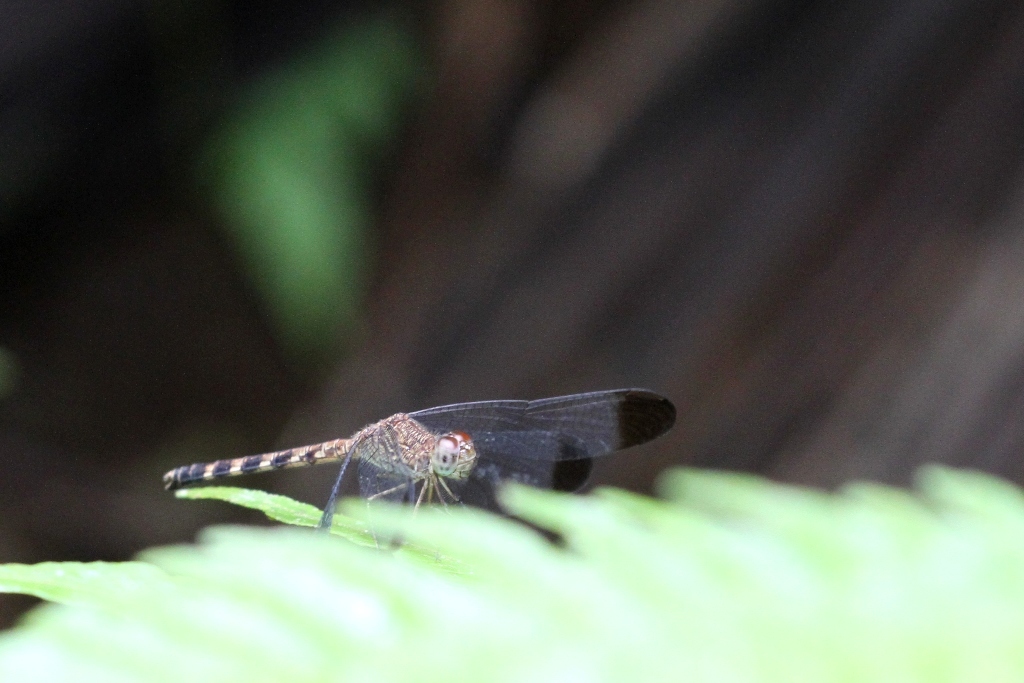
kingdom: Animalia
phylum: Arthropoda
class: Insecta
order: Odonata
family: Libellulidae
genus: Uracis
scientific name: Uracis imbuta
